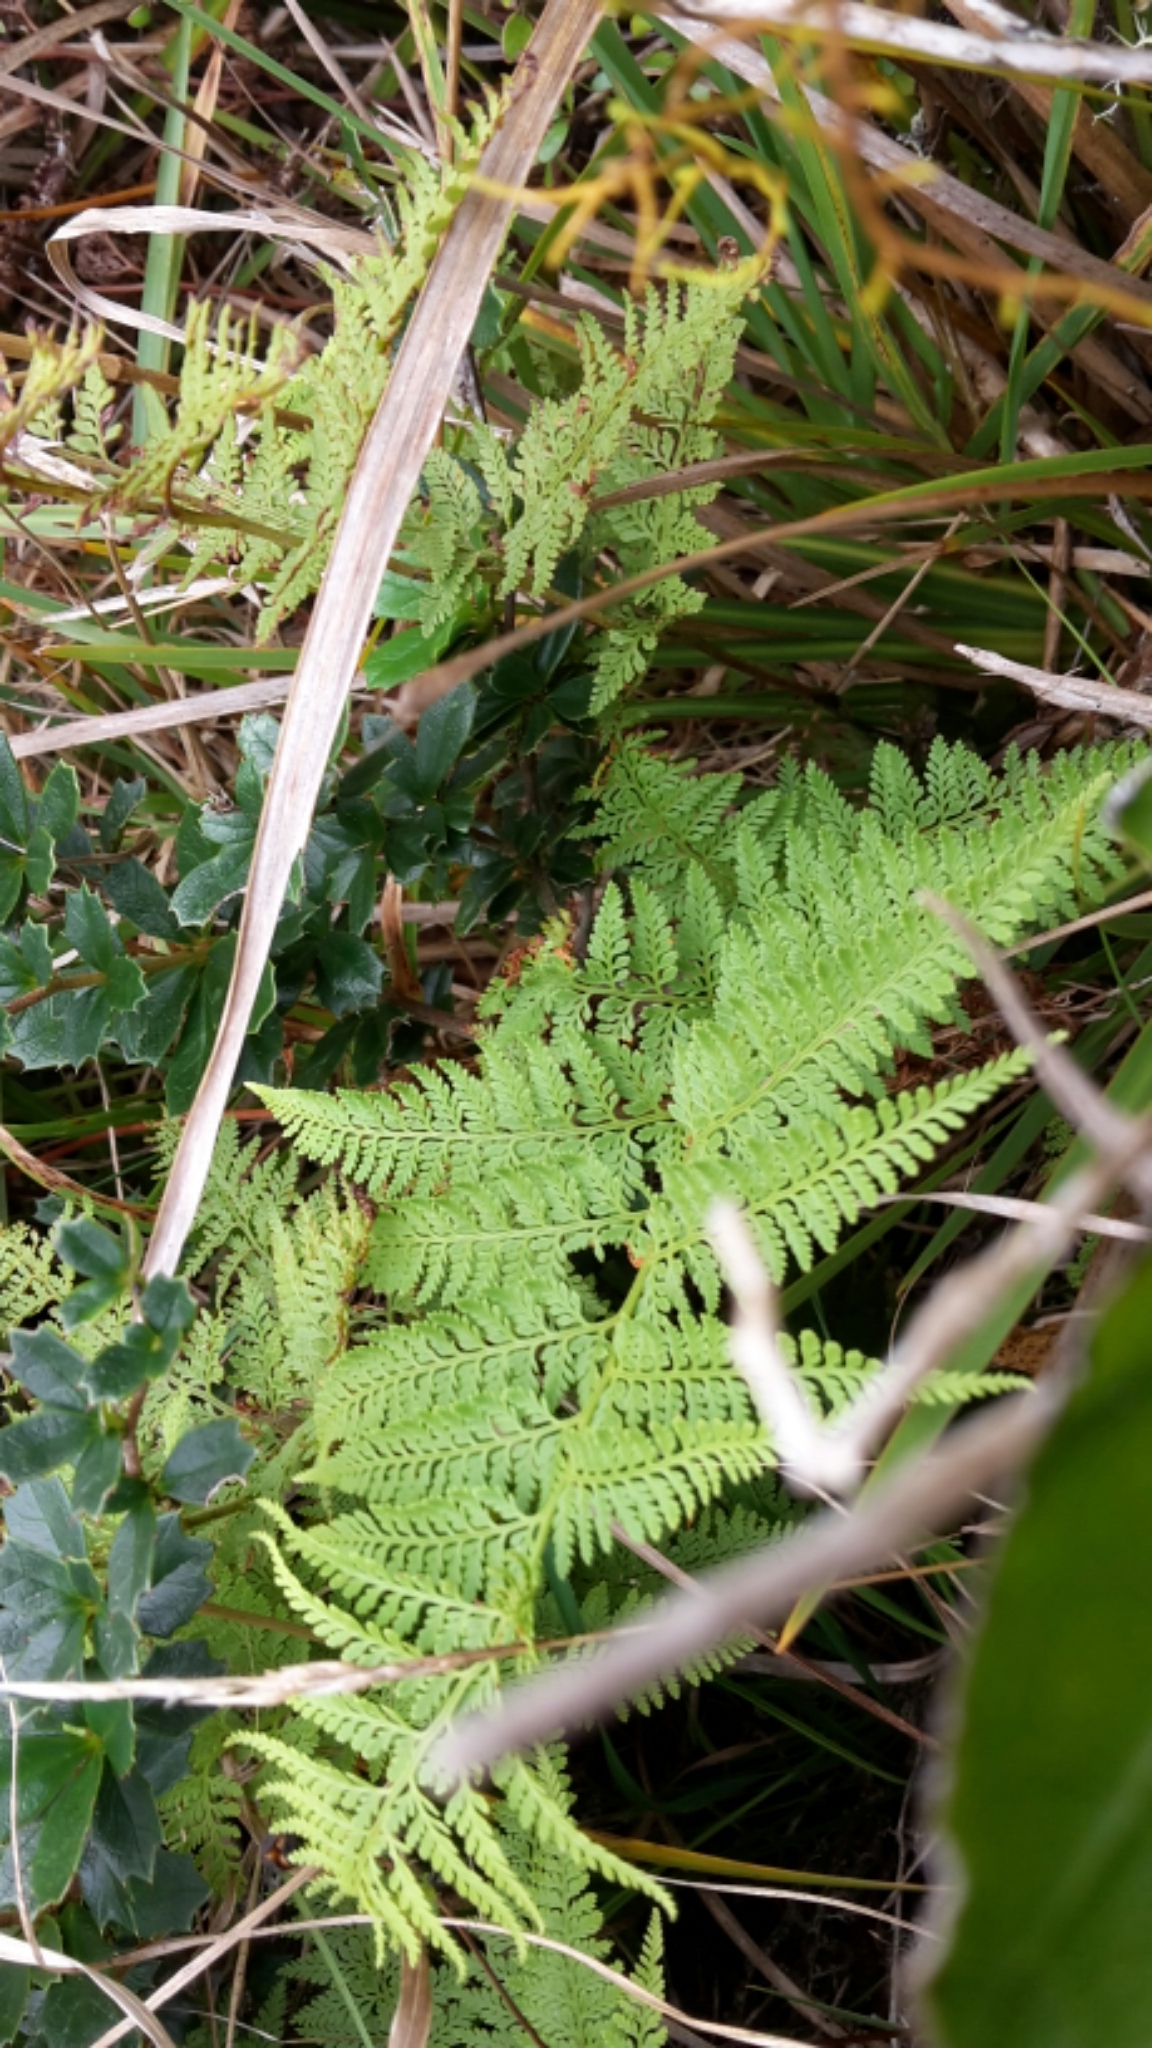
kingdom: Plantae
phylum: Tracheophyta
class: Polypodiopsida
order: Polypodiales
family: Dennstaedtiaceae
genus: Paesia
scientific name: Paesia scaberula
